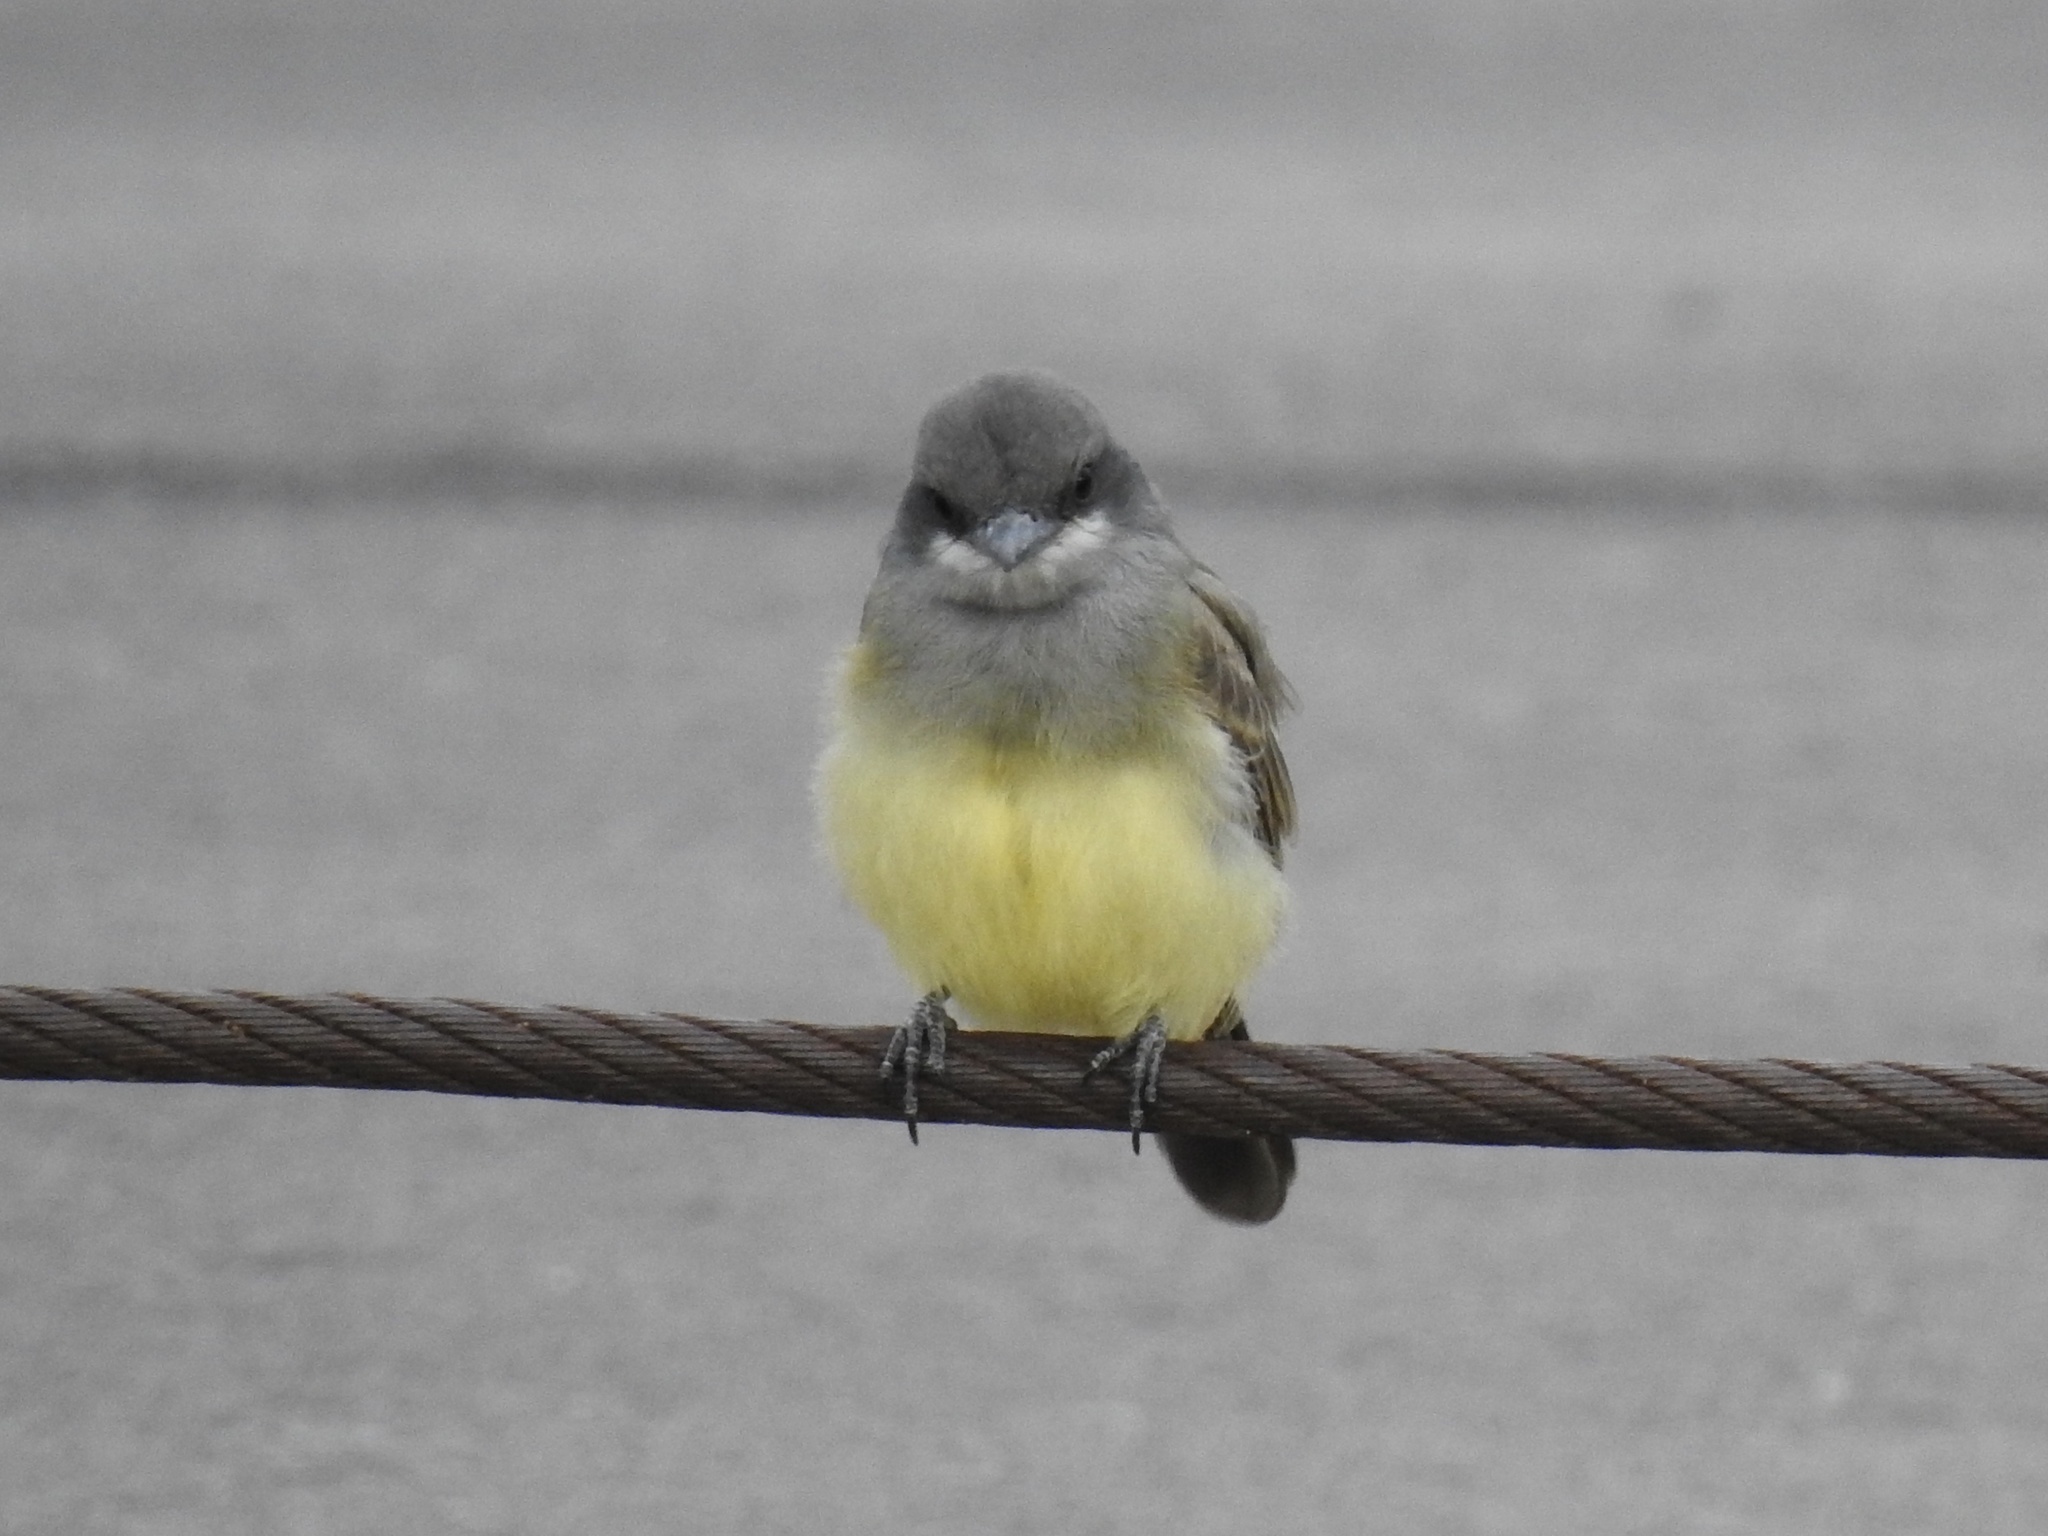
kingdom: Animalia
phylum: Chordata
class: Aves
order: Passeriformes
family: Tyrannidae
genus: Tyrannus
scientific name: Tyrannus vociferans
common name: Cassin's kingbird
